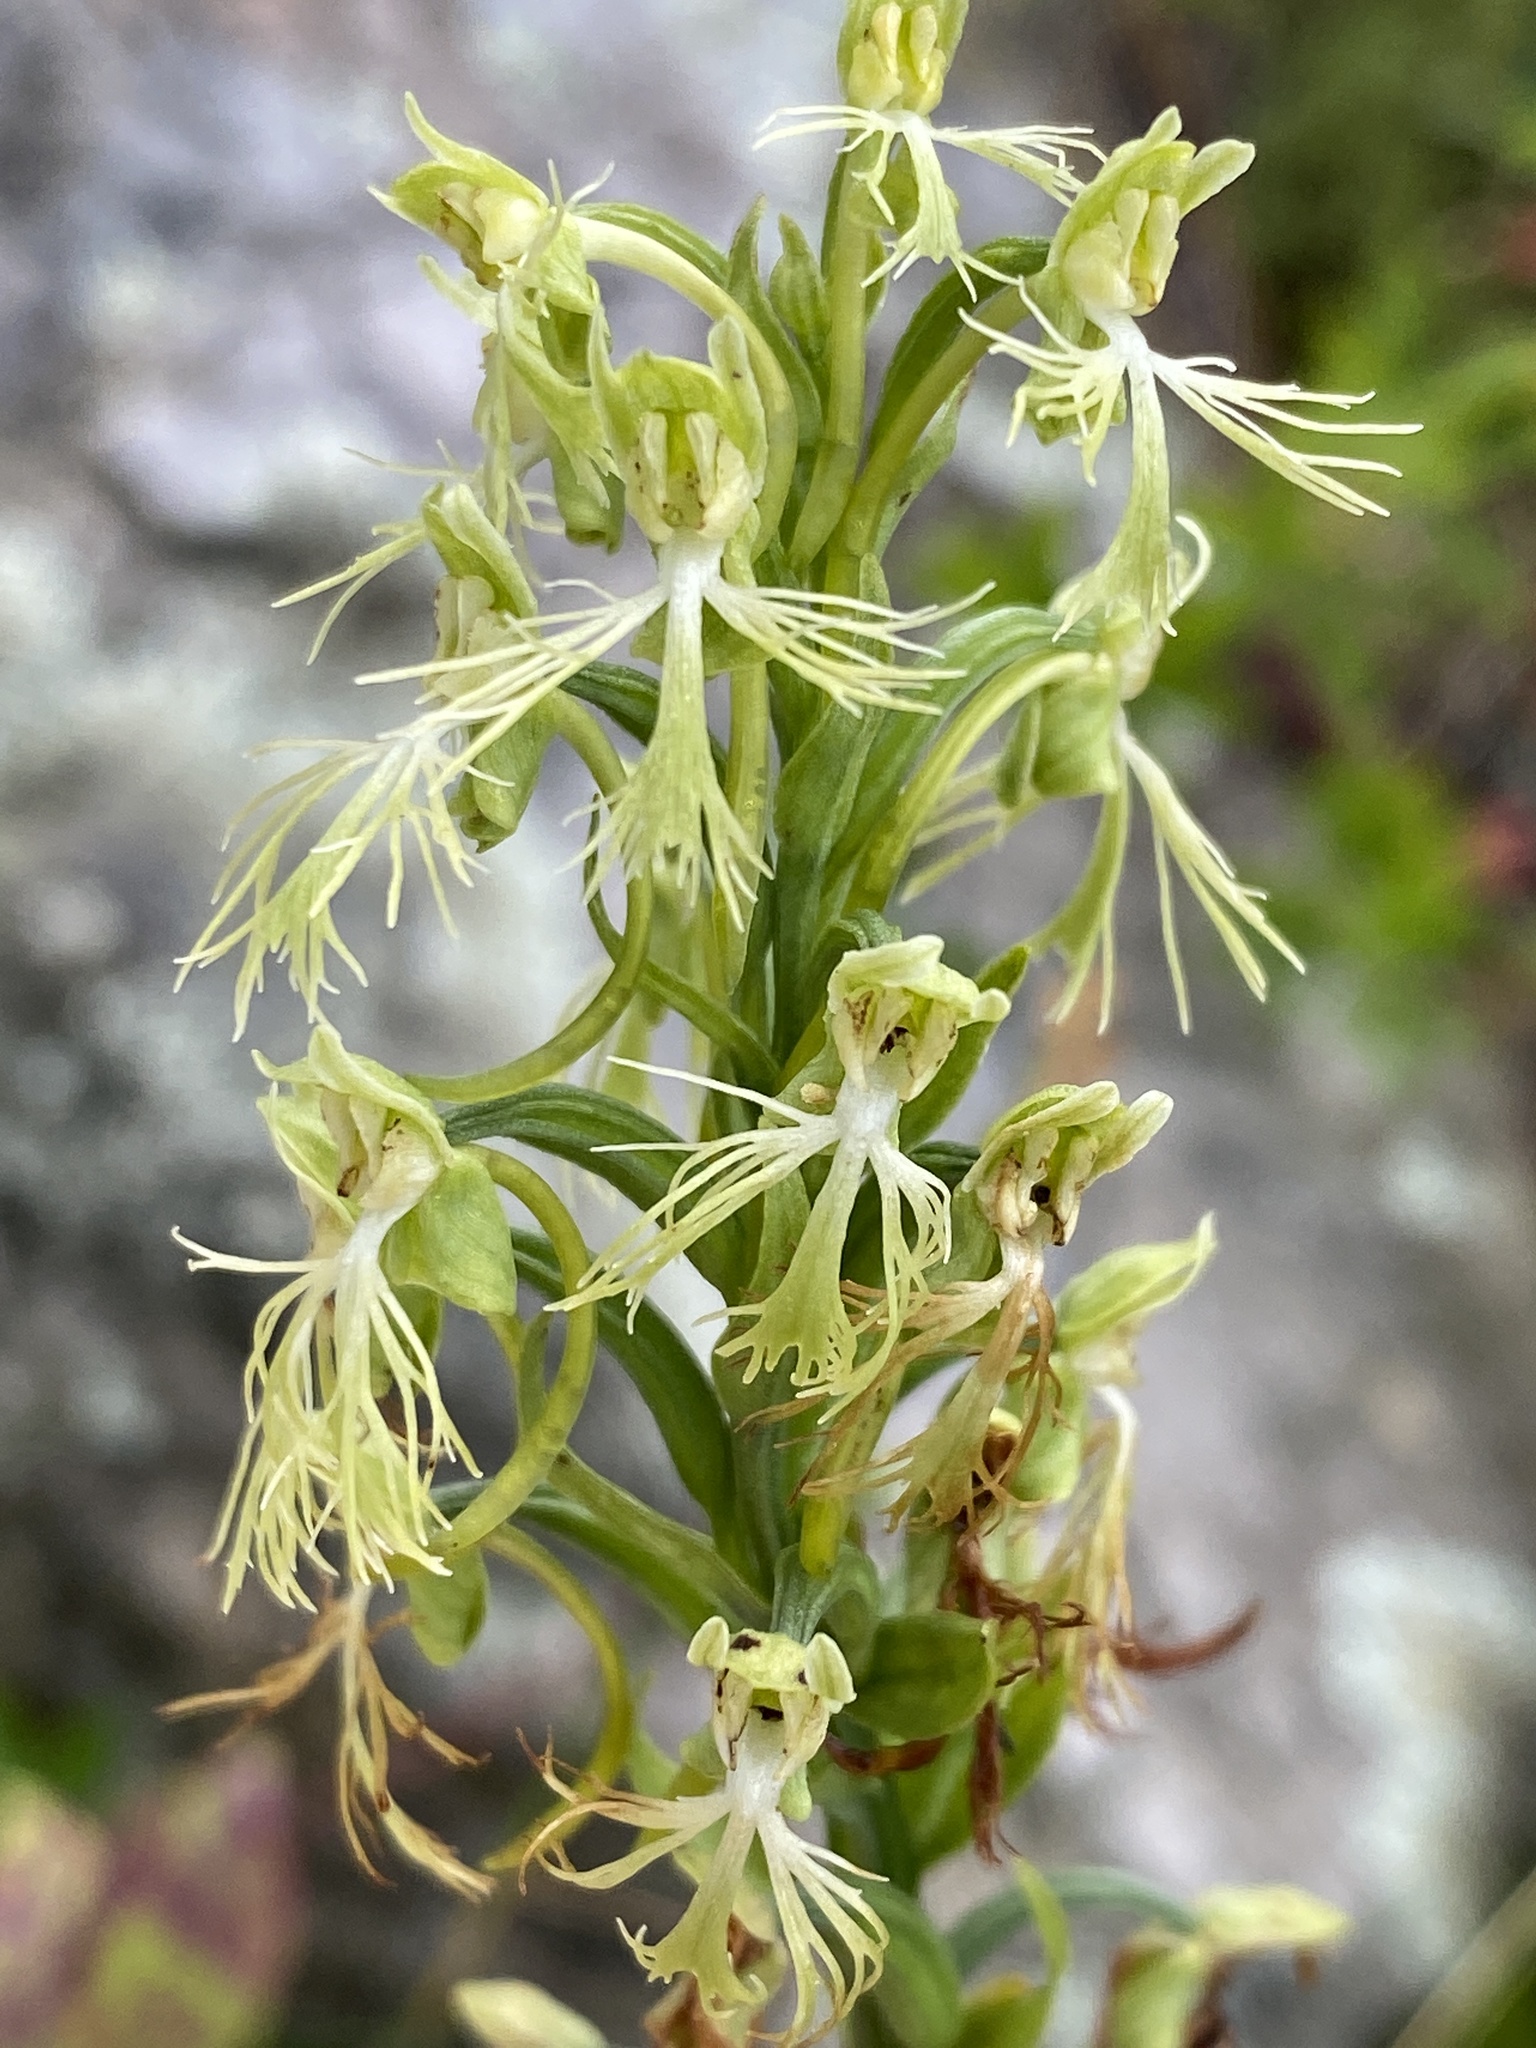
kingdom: Plantae
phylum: Tracheophyta
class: Liliopsida
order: Asparagales
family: Orchidaceae
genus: Platanthera
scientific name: Platanthera lacera
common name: Green fringed orchid
